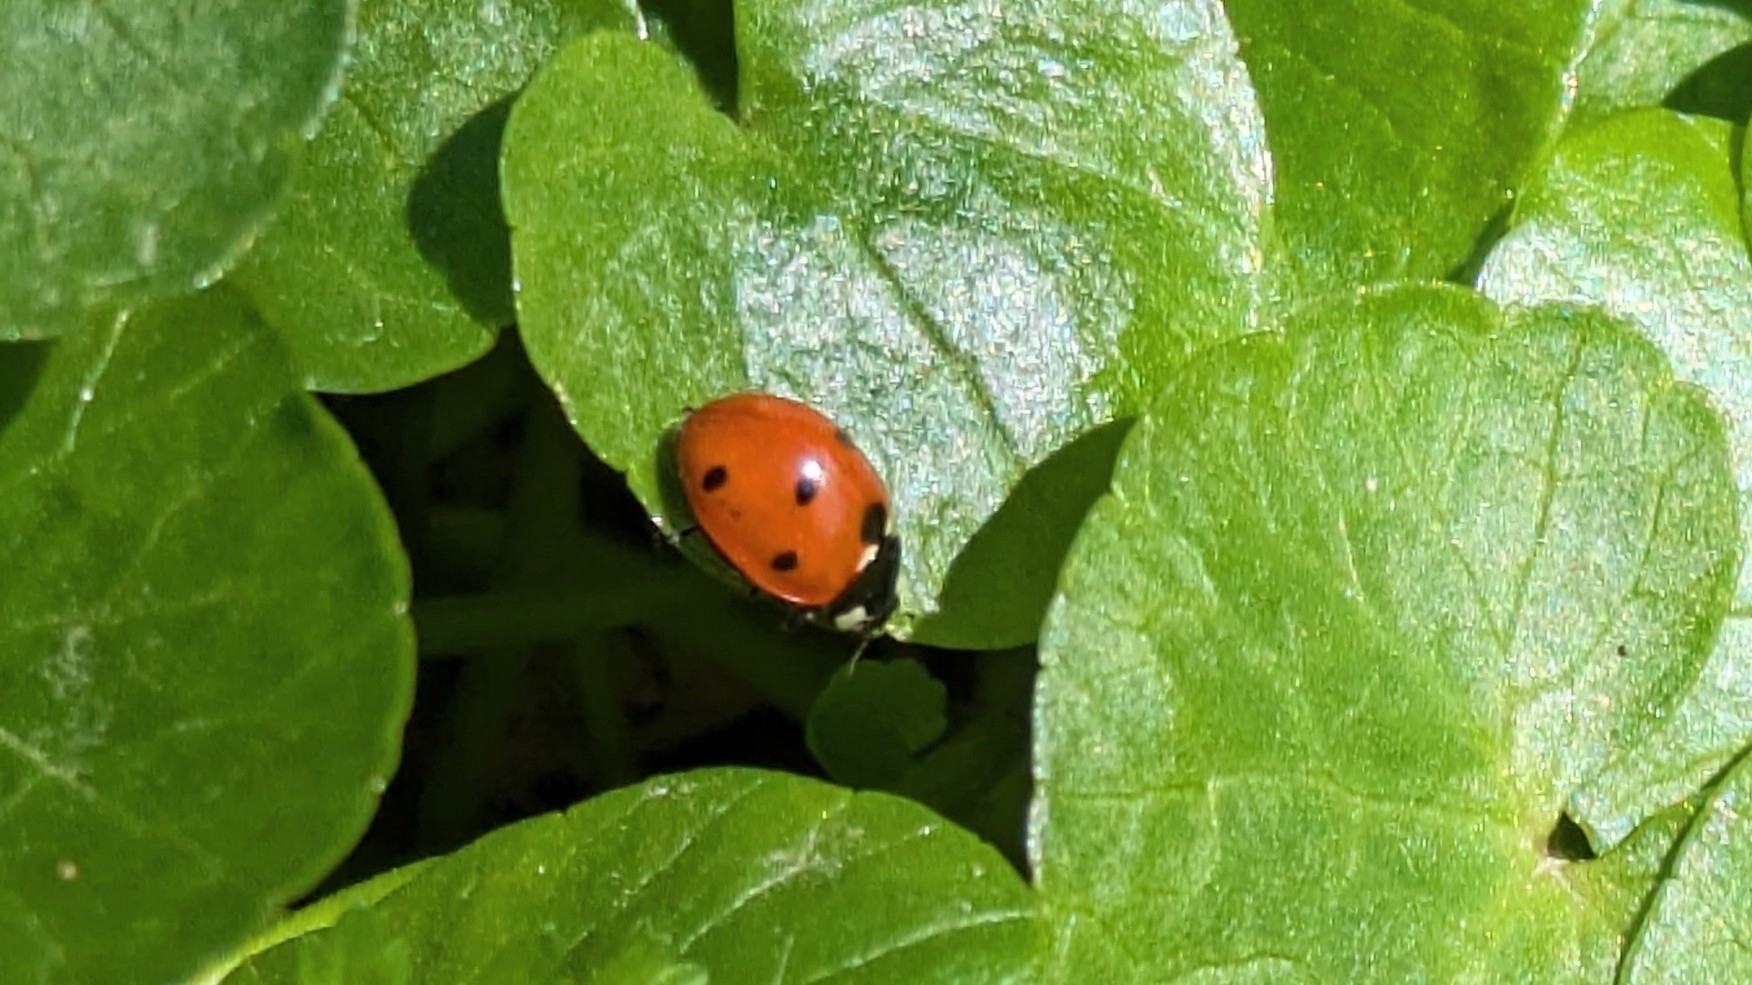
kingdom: Animalia
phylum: Arthropoda
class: Insecta
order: Coleoptera
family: Coccinellidae
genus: Coccinella
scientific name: Coccinella septempunctata
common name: Sevenspotted lady beetle
